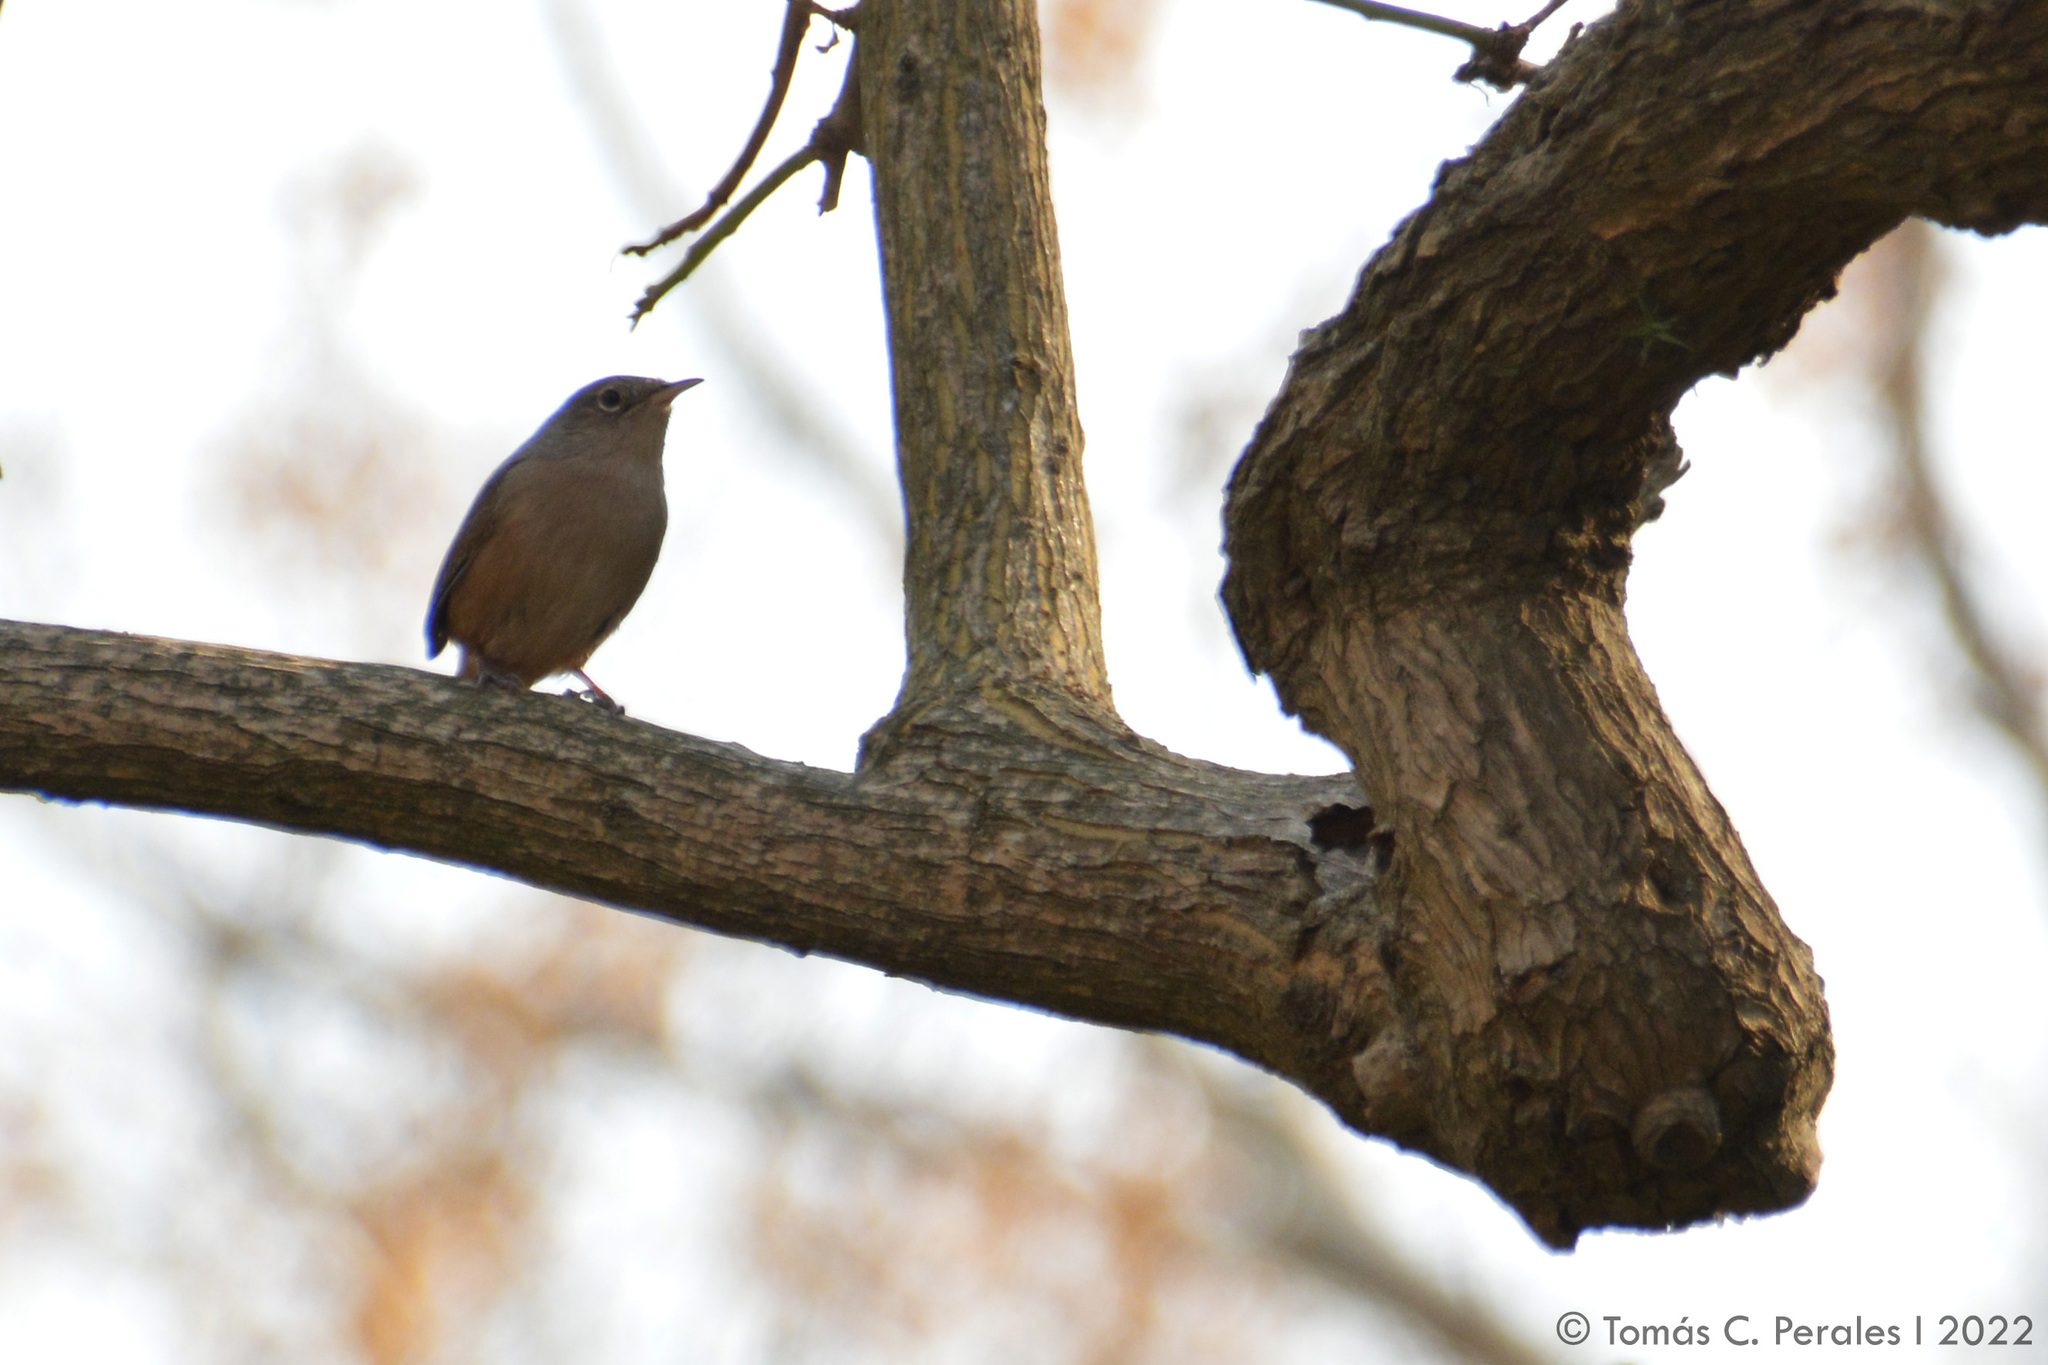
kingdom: Animalia
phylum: Chordata
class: Aves
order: Passeriformes
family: Troglodytidae
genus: Troglodytes
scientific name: Troglodytes aedon
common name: House wren
